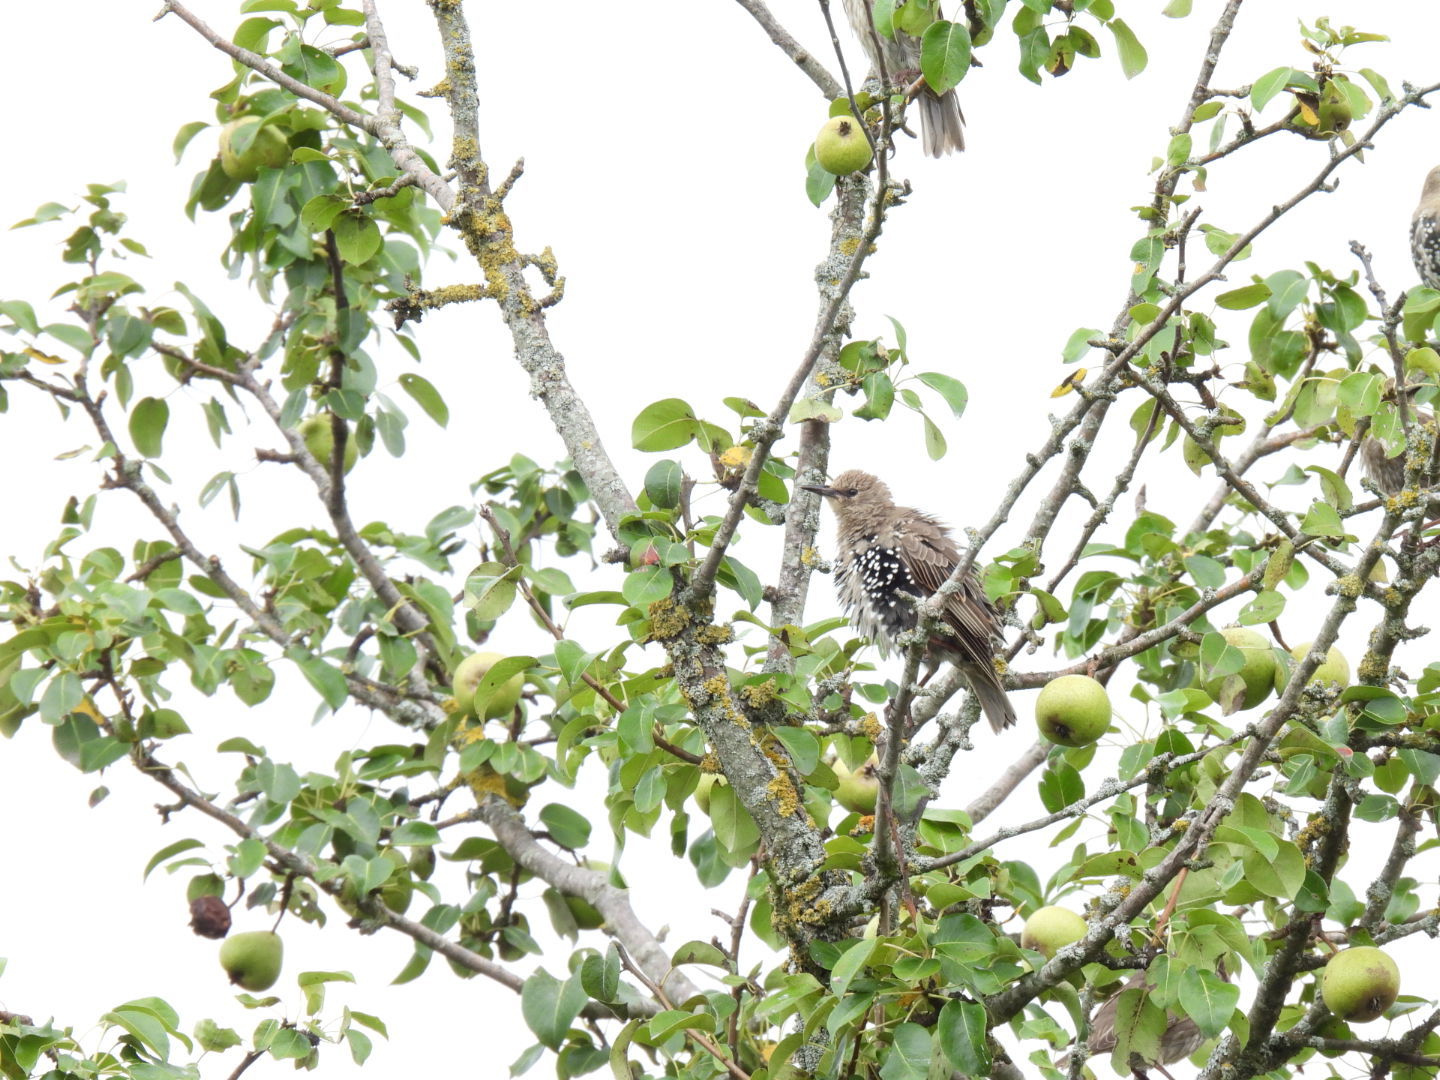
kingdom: Animalia
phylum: Chordata
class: Aves
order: Passeriformes
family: Sturnidae
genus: Sturnus
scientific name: Sturnus vulgaris
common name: Common starling
